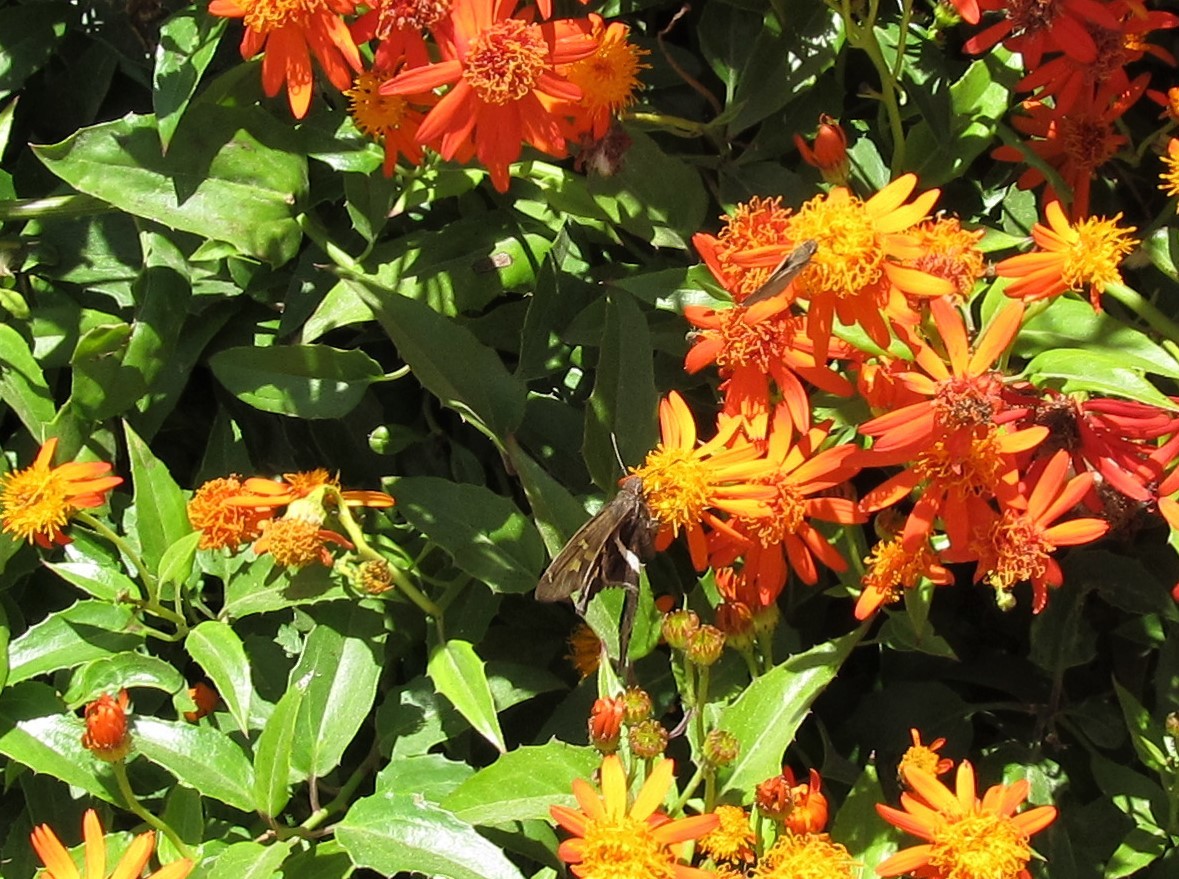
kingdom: Animalia
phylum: Arthropoda
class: Insecta
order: Lepidoptera
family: Hesperiidae
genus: Chioides
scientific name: Chioides catillus
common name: Silverbanded skipper
